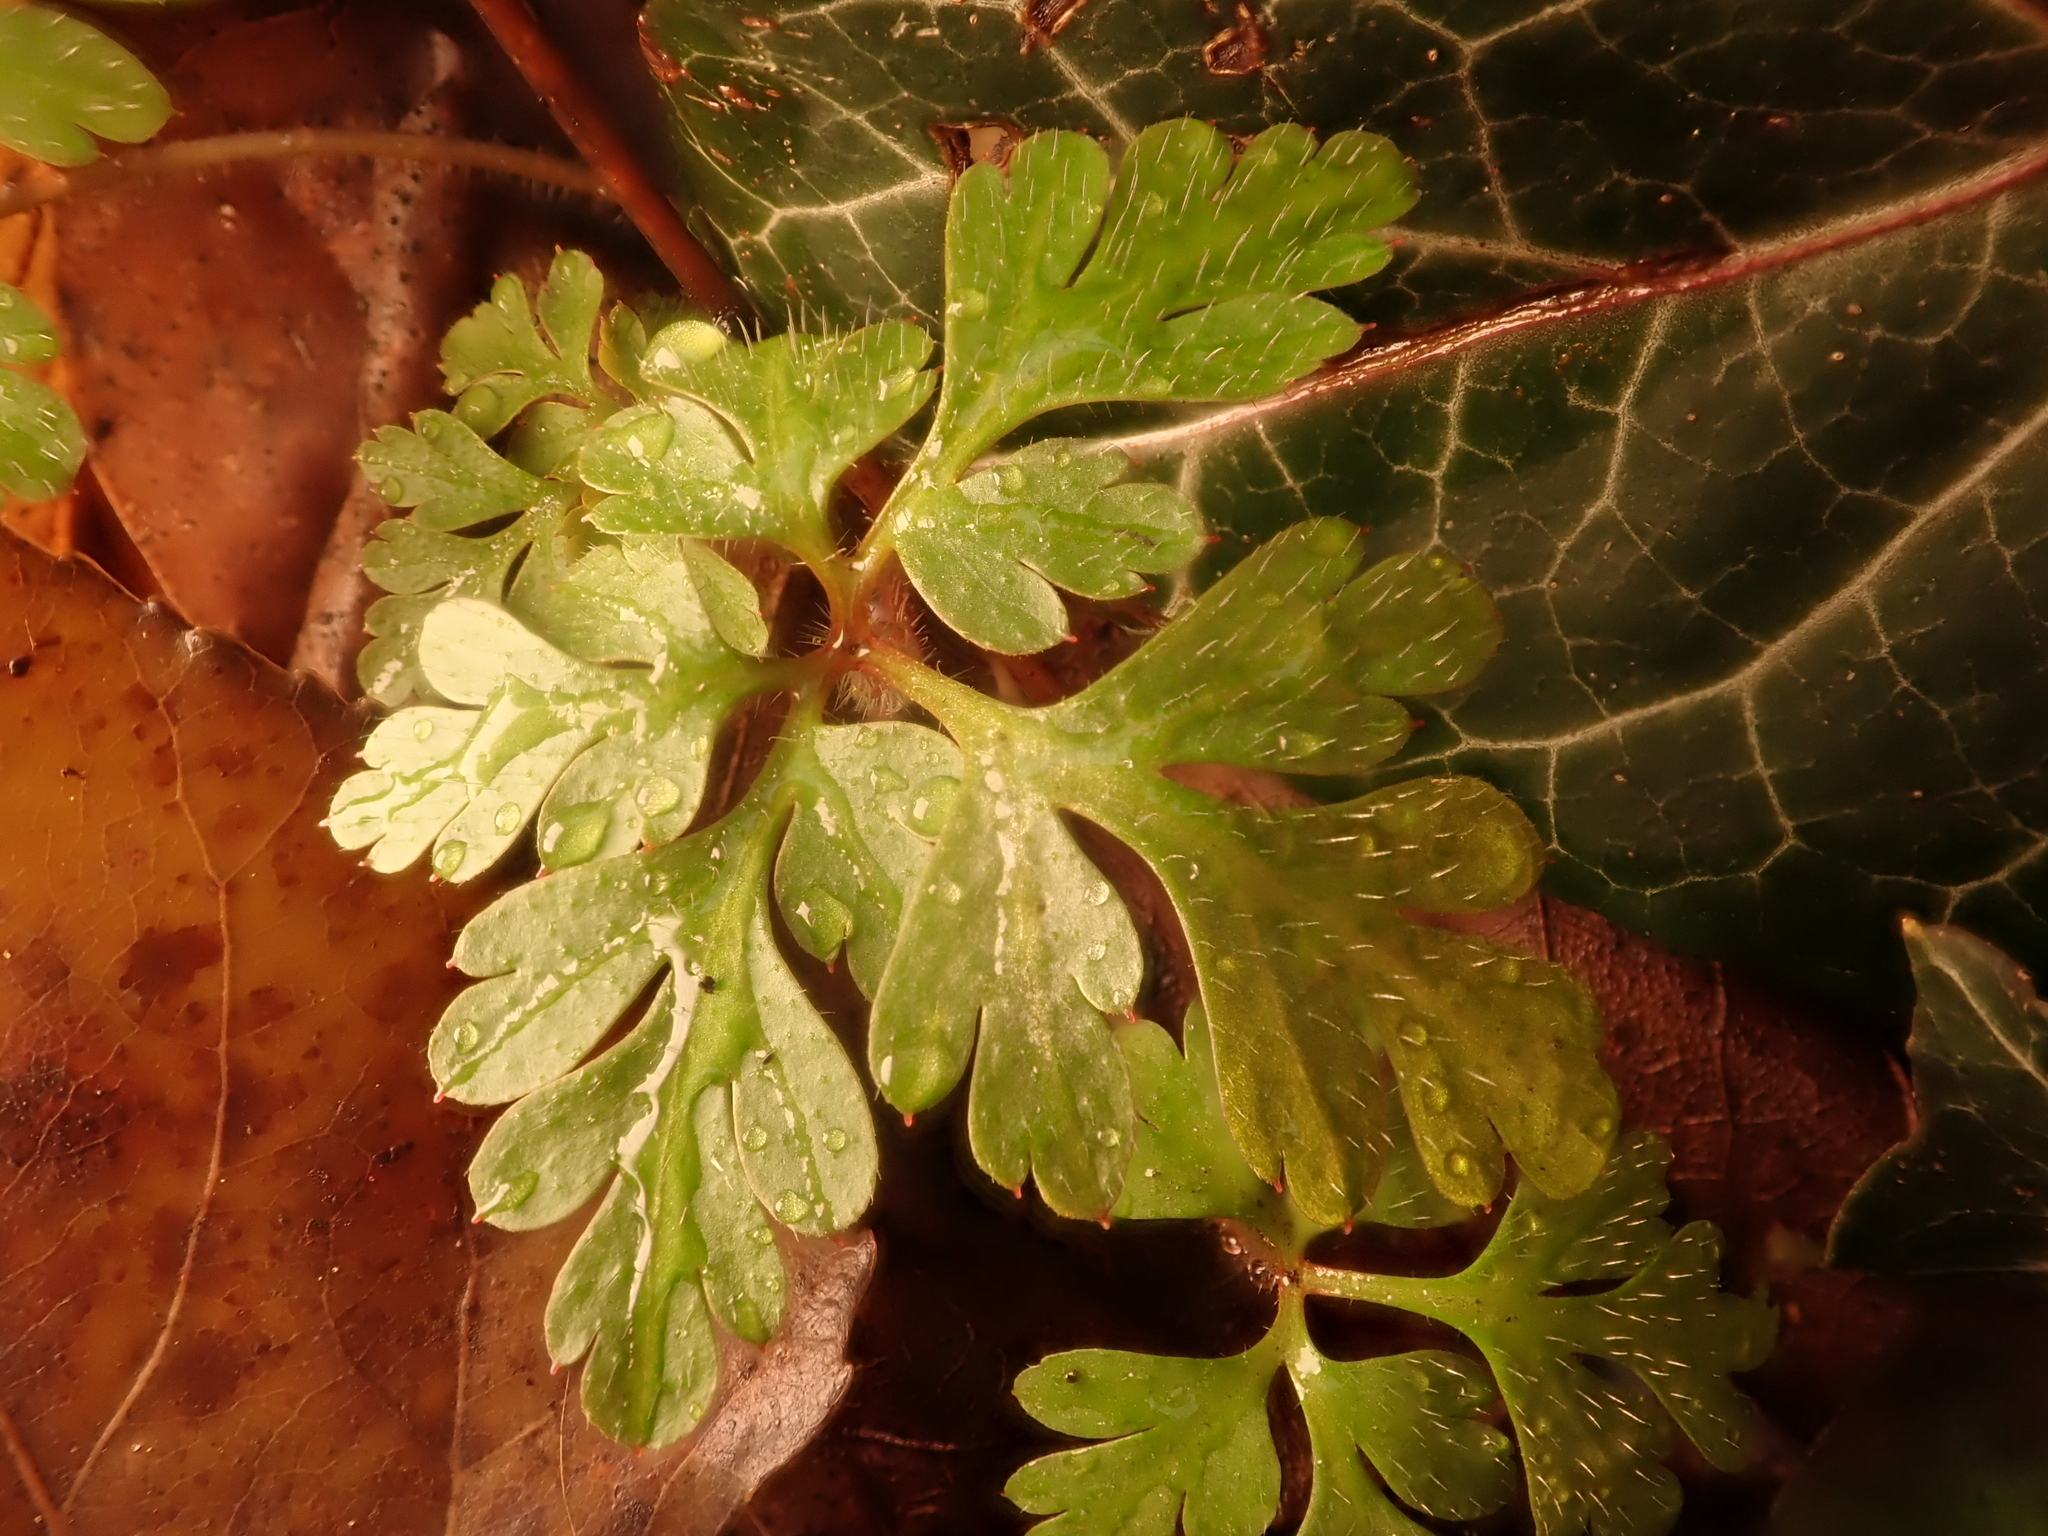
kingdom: Plantae
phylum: Tracheophyta
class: Magnoliopsida
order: Geraniales
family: Geraniaceae
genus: Geranium
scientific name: Geranium robertianum
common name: Herb-robert
